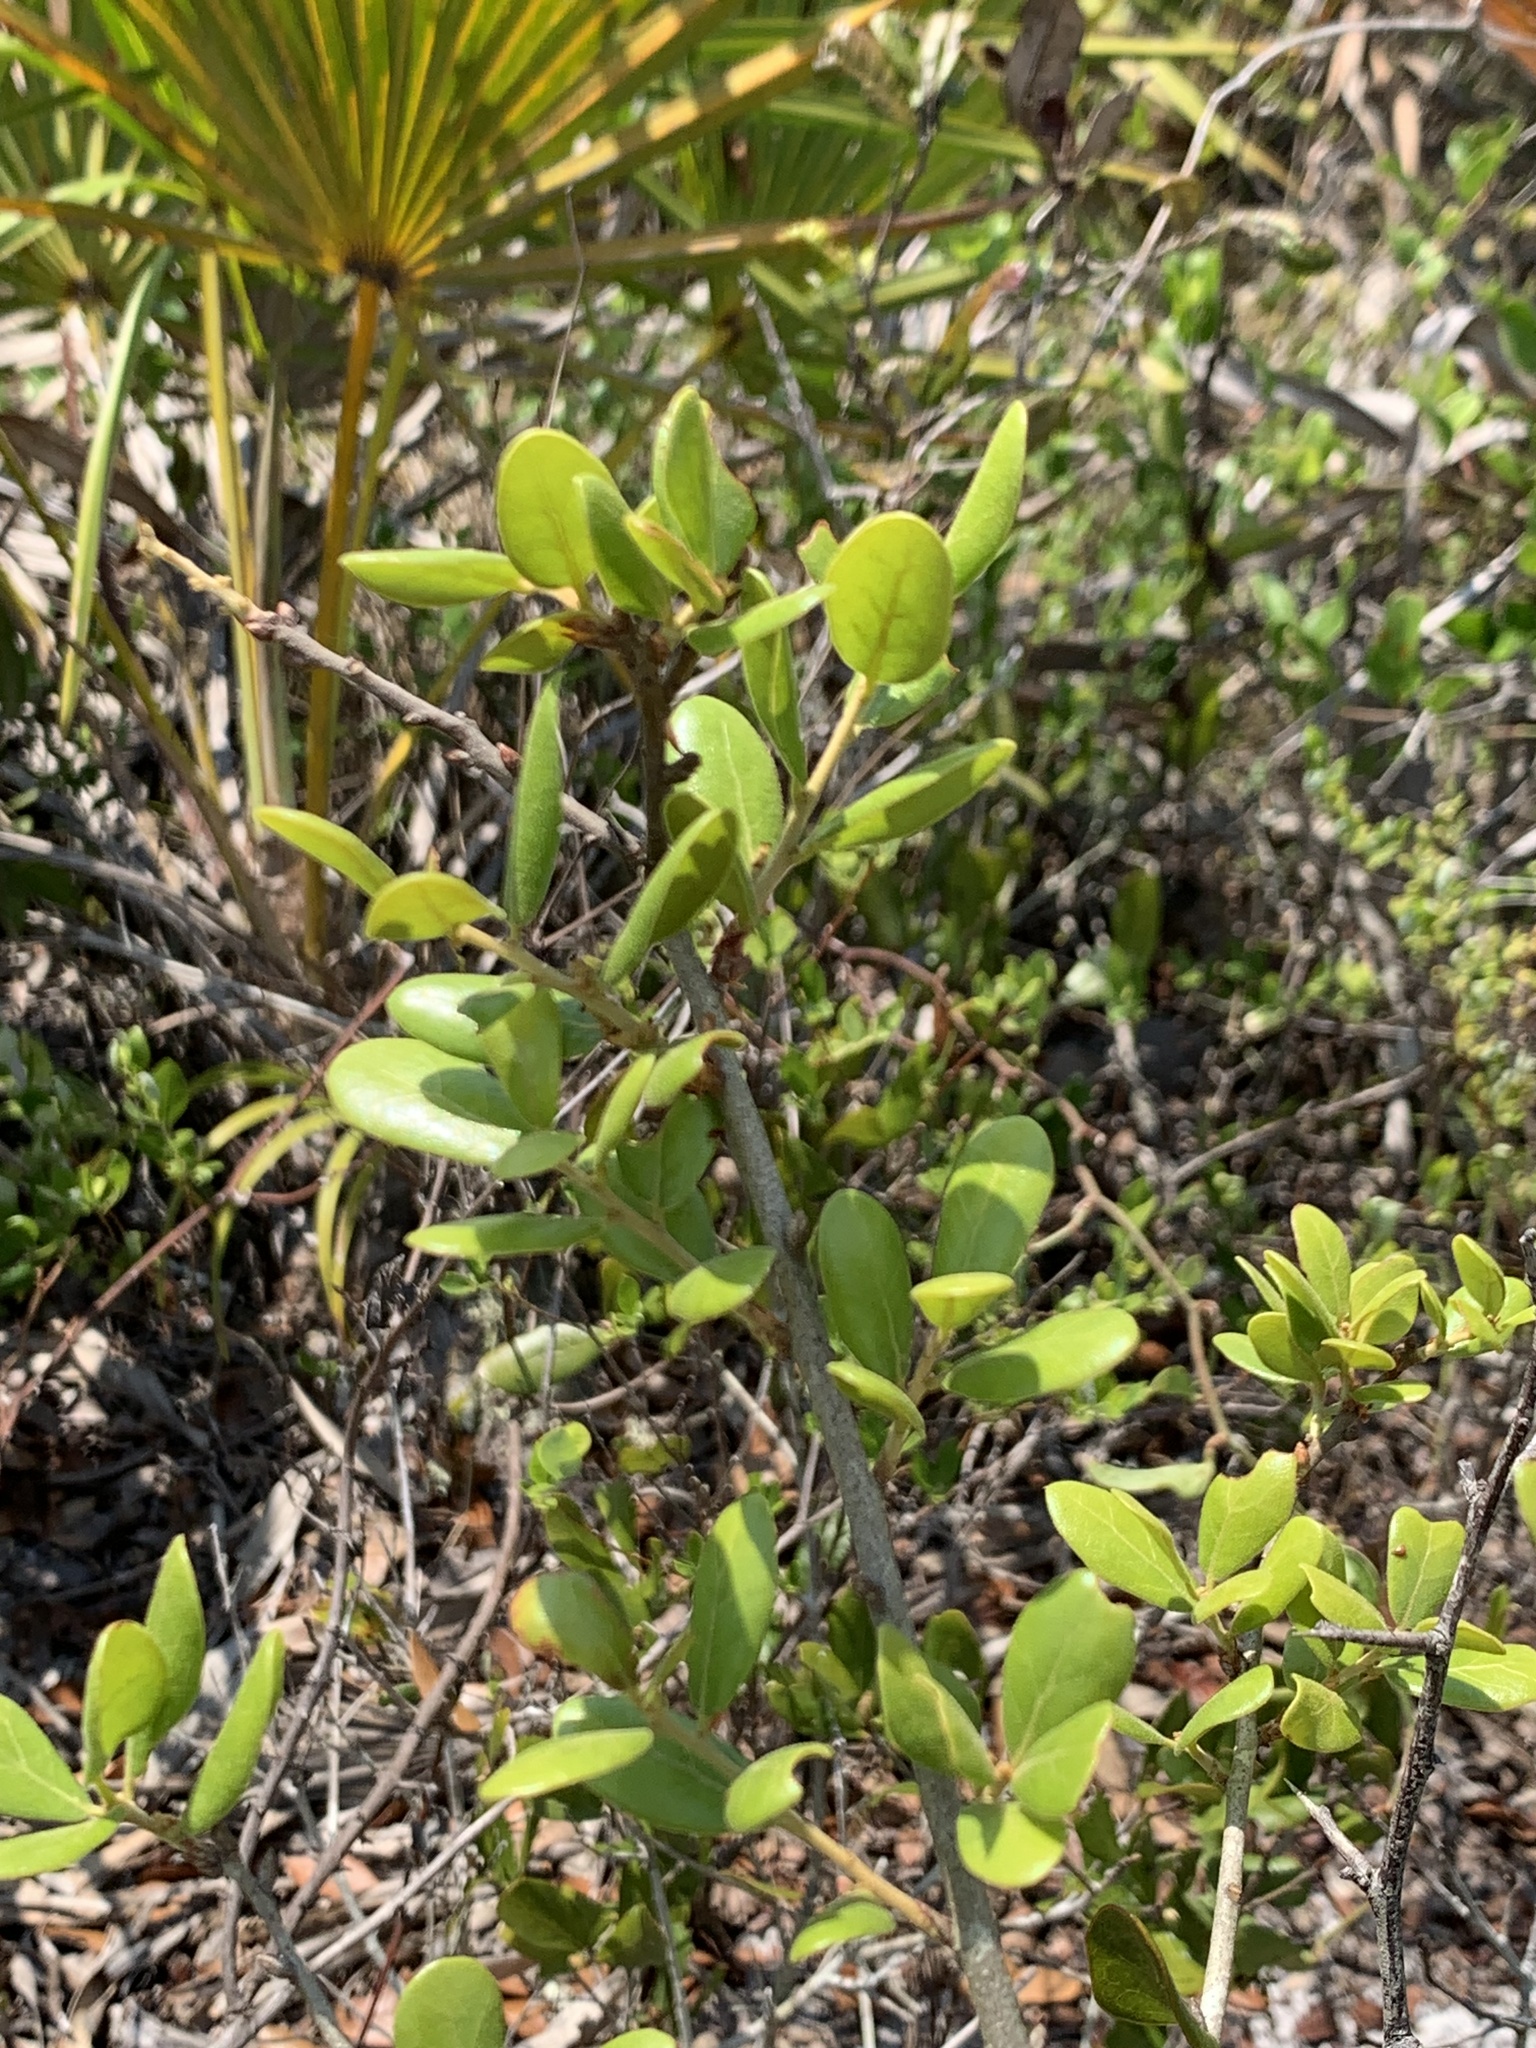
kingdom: Plantae
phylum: Tracheophyta
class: Magnoliopsida
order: Fagales
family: Fagaceae
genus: Quercus
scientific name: Quercus myrtifolia
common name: Myrtle oak
